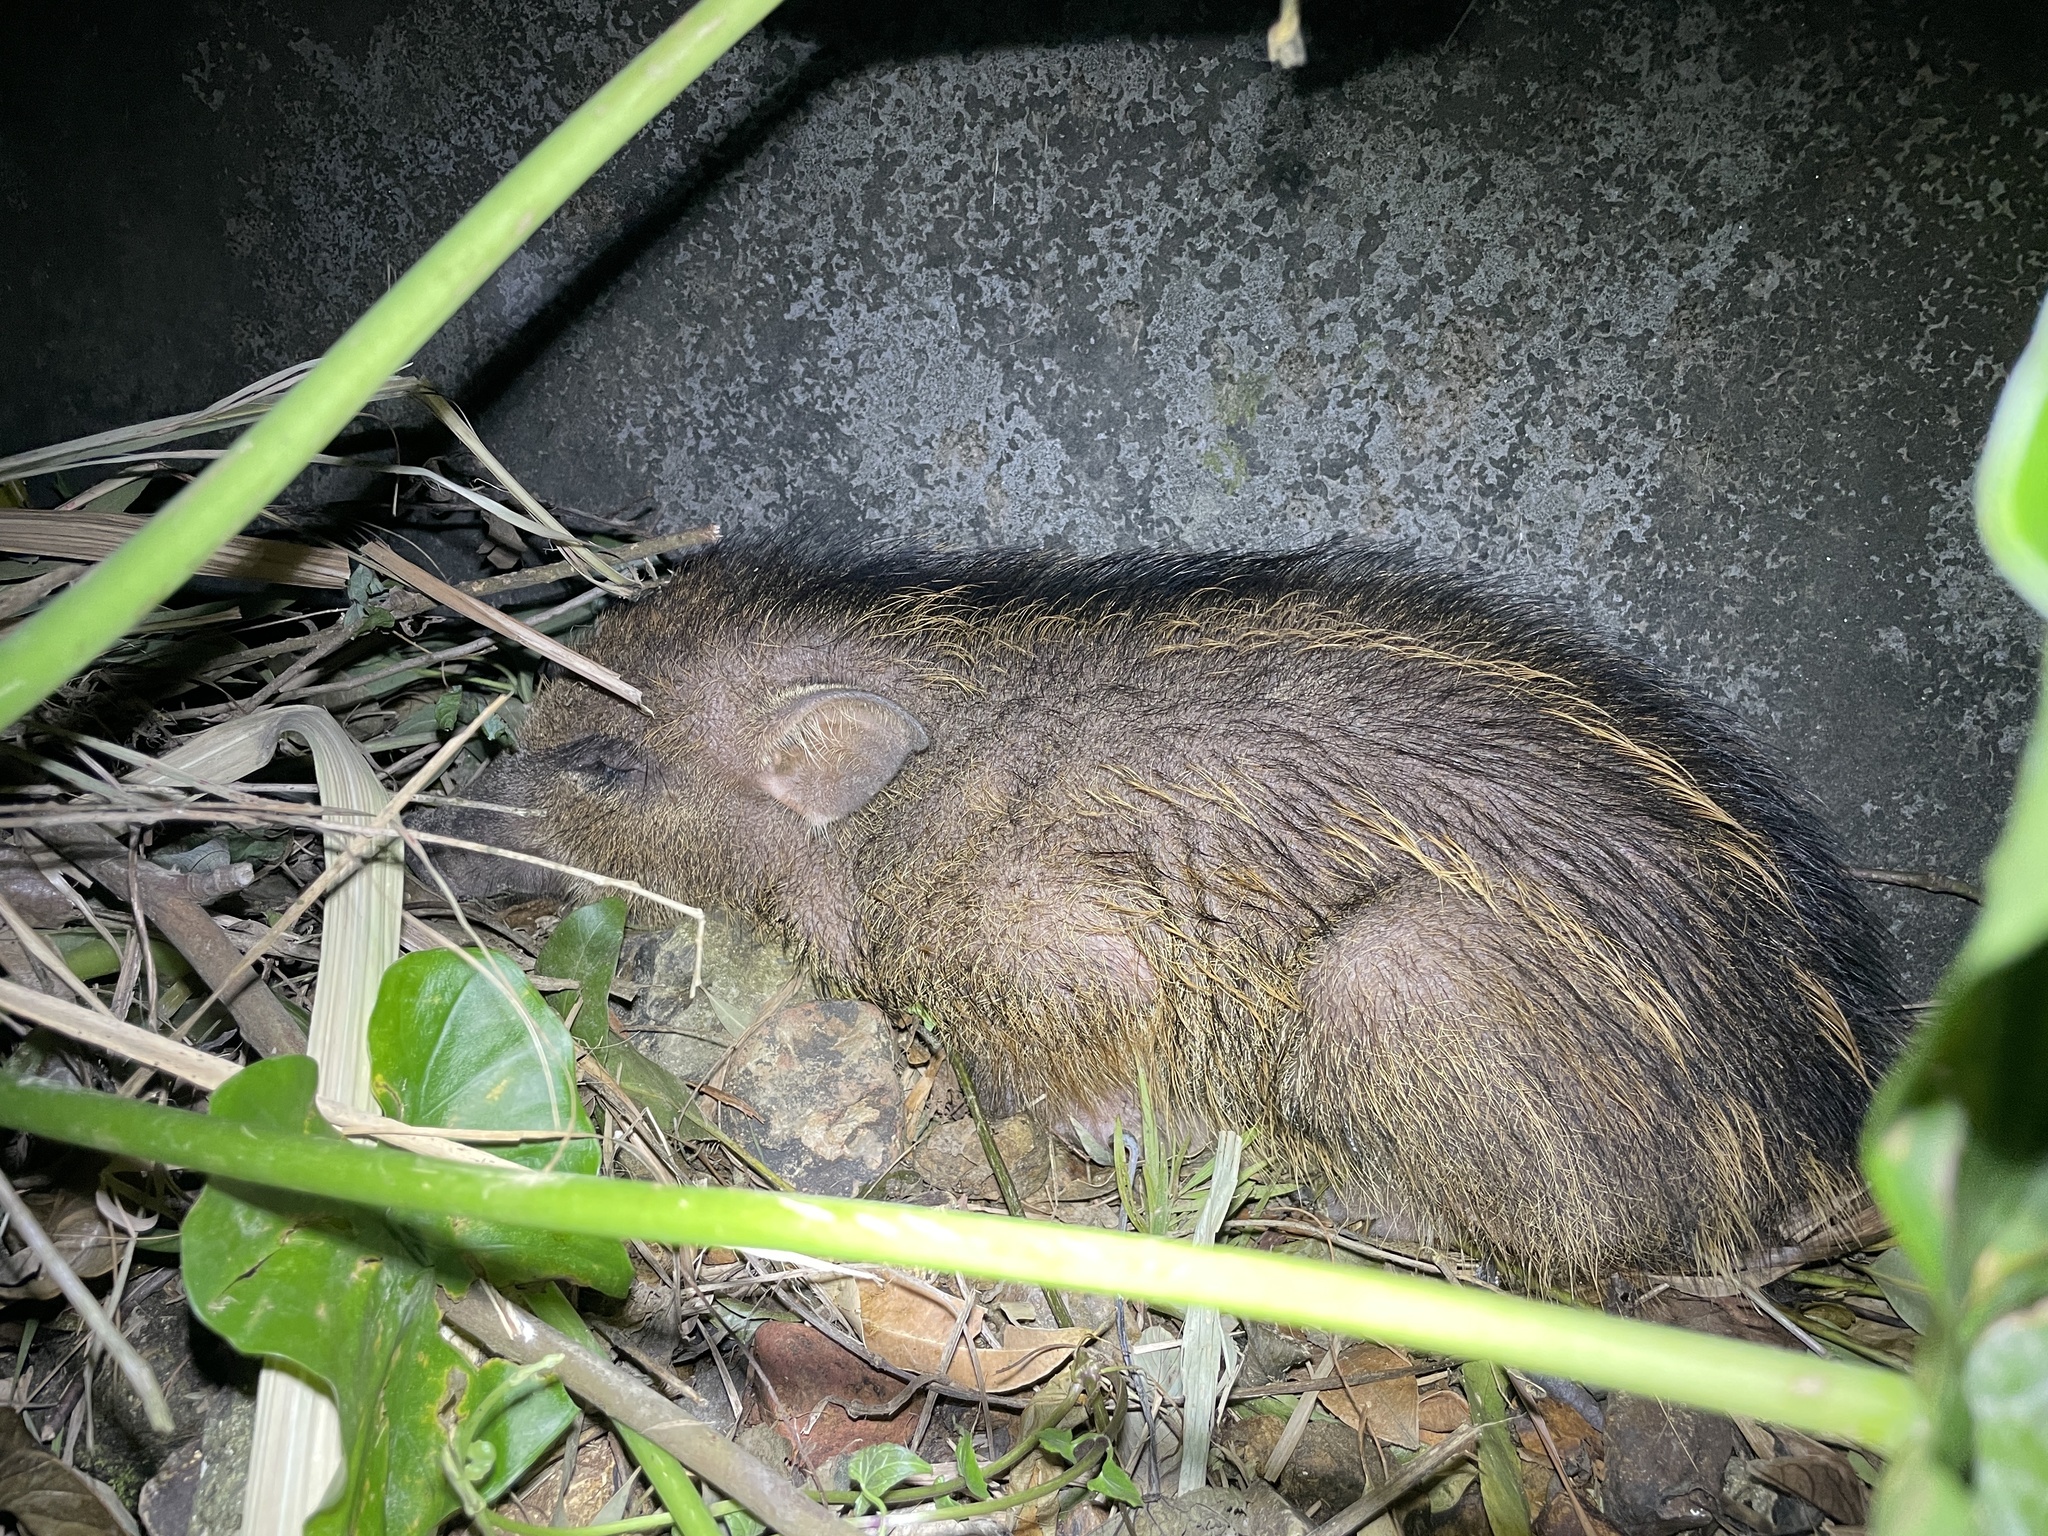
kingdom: Animalia
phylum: Chordata
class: Mammalia
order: Artiodactyla
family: Suidae
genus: Sus
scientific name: Sus scrofa
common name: Wild boar
